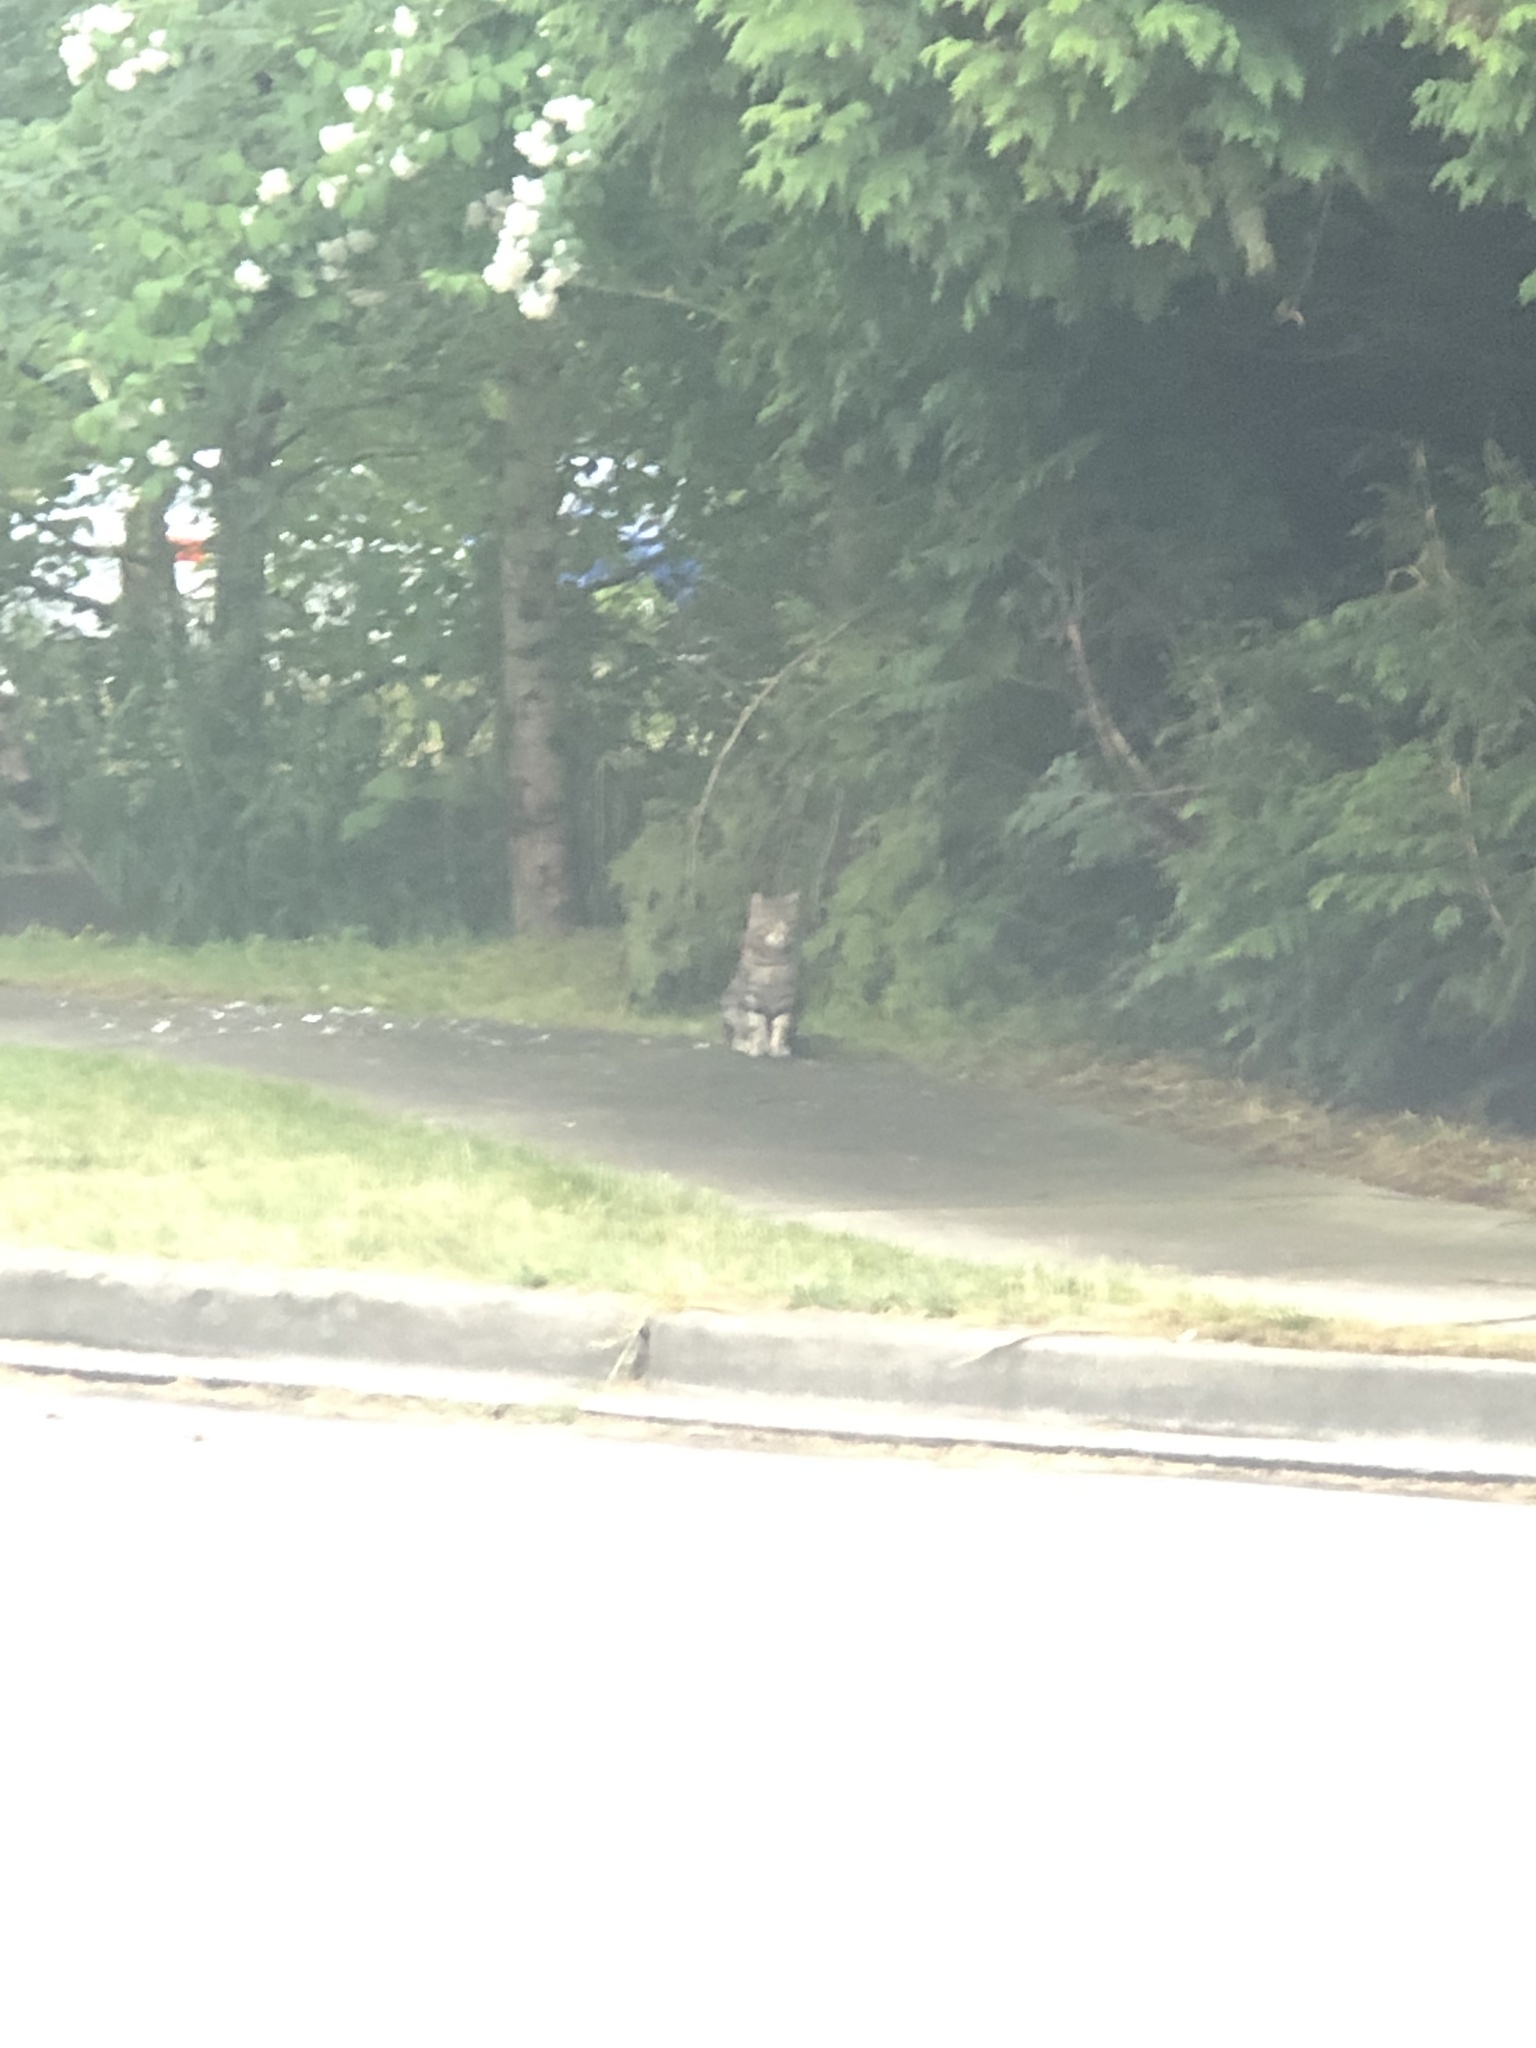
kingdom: Animalia
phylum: Chordata
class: Mammalia
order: Carnivora
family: Felidae
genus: Felis
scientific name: Felis catus
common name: Domestic cat
